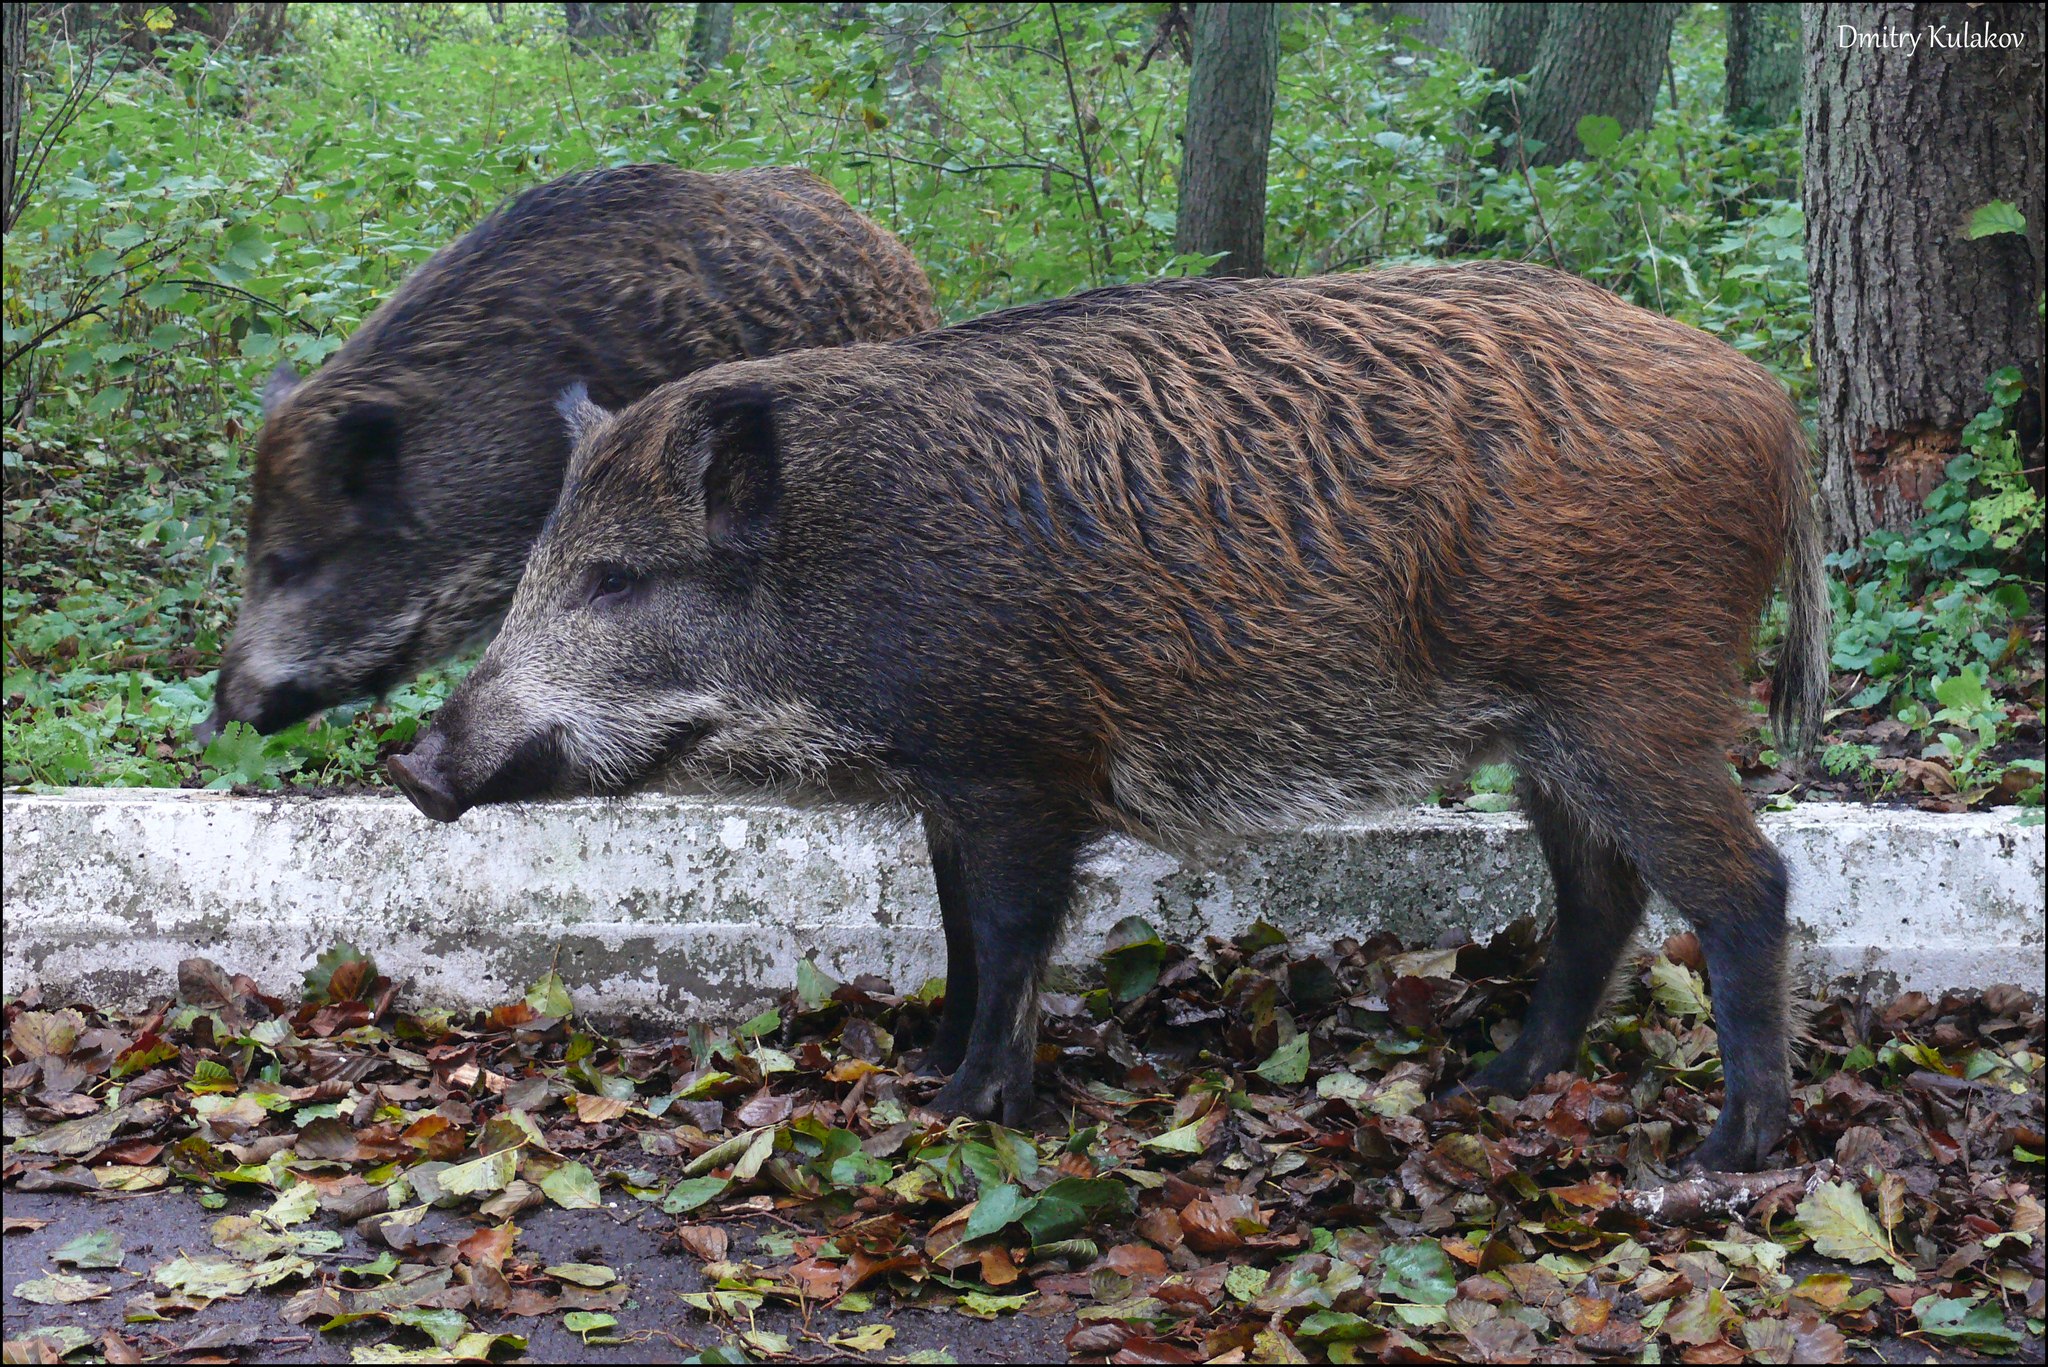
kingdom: Animalia
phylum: Chordata
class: Mammalia
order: Artiodactyla
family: Suidae
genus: Sus
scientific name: Sus scrofa
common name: Wild boar
